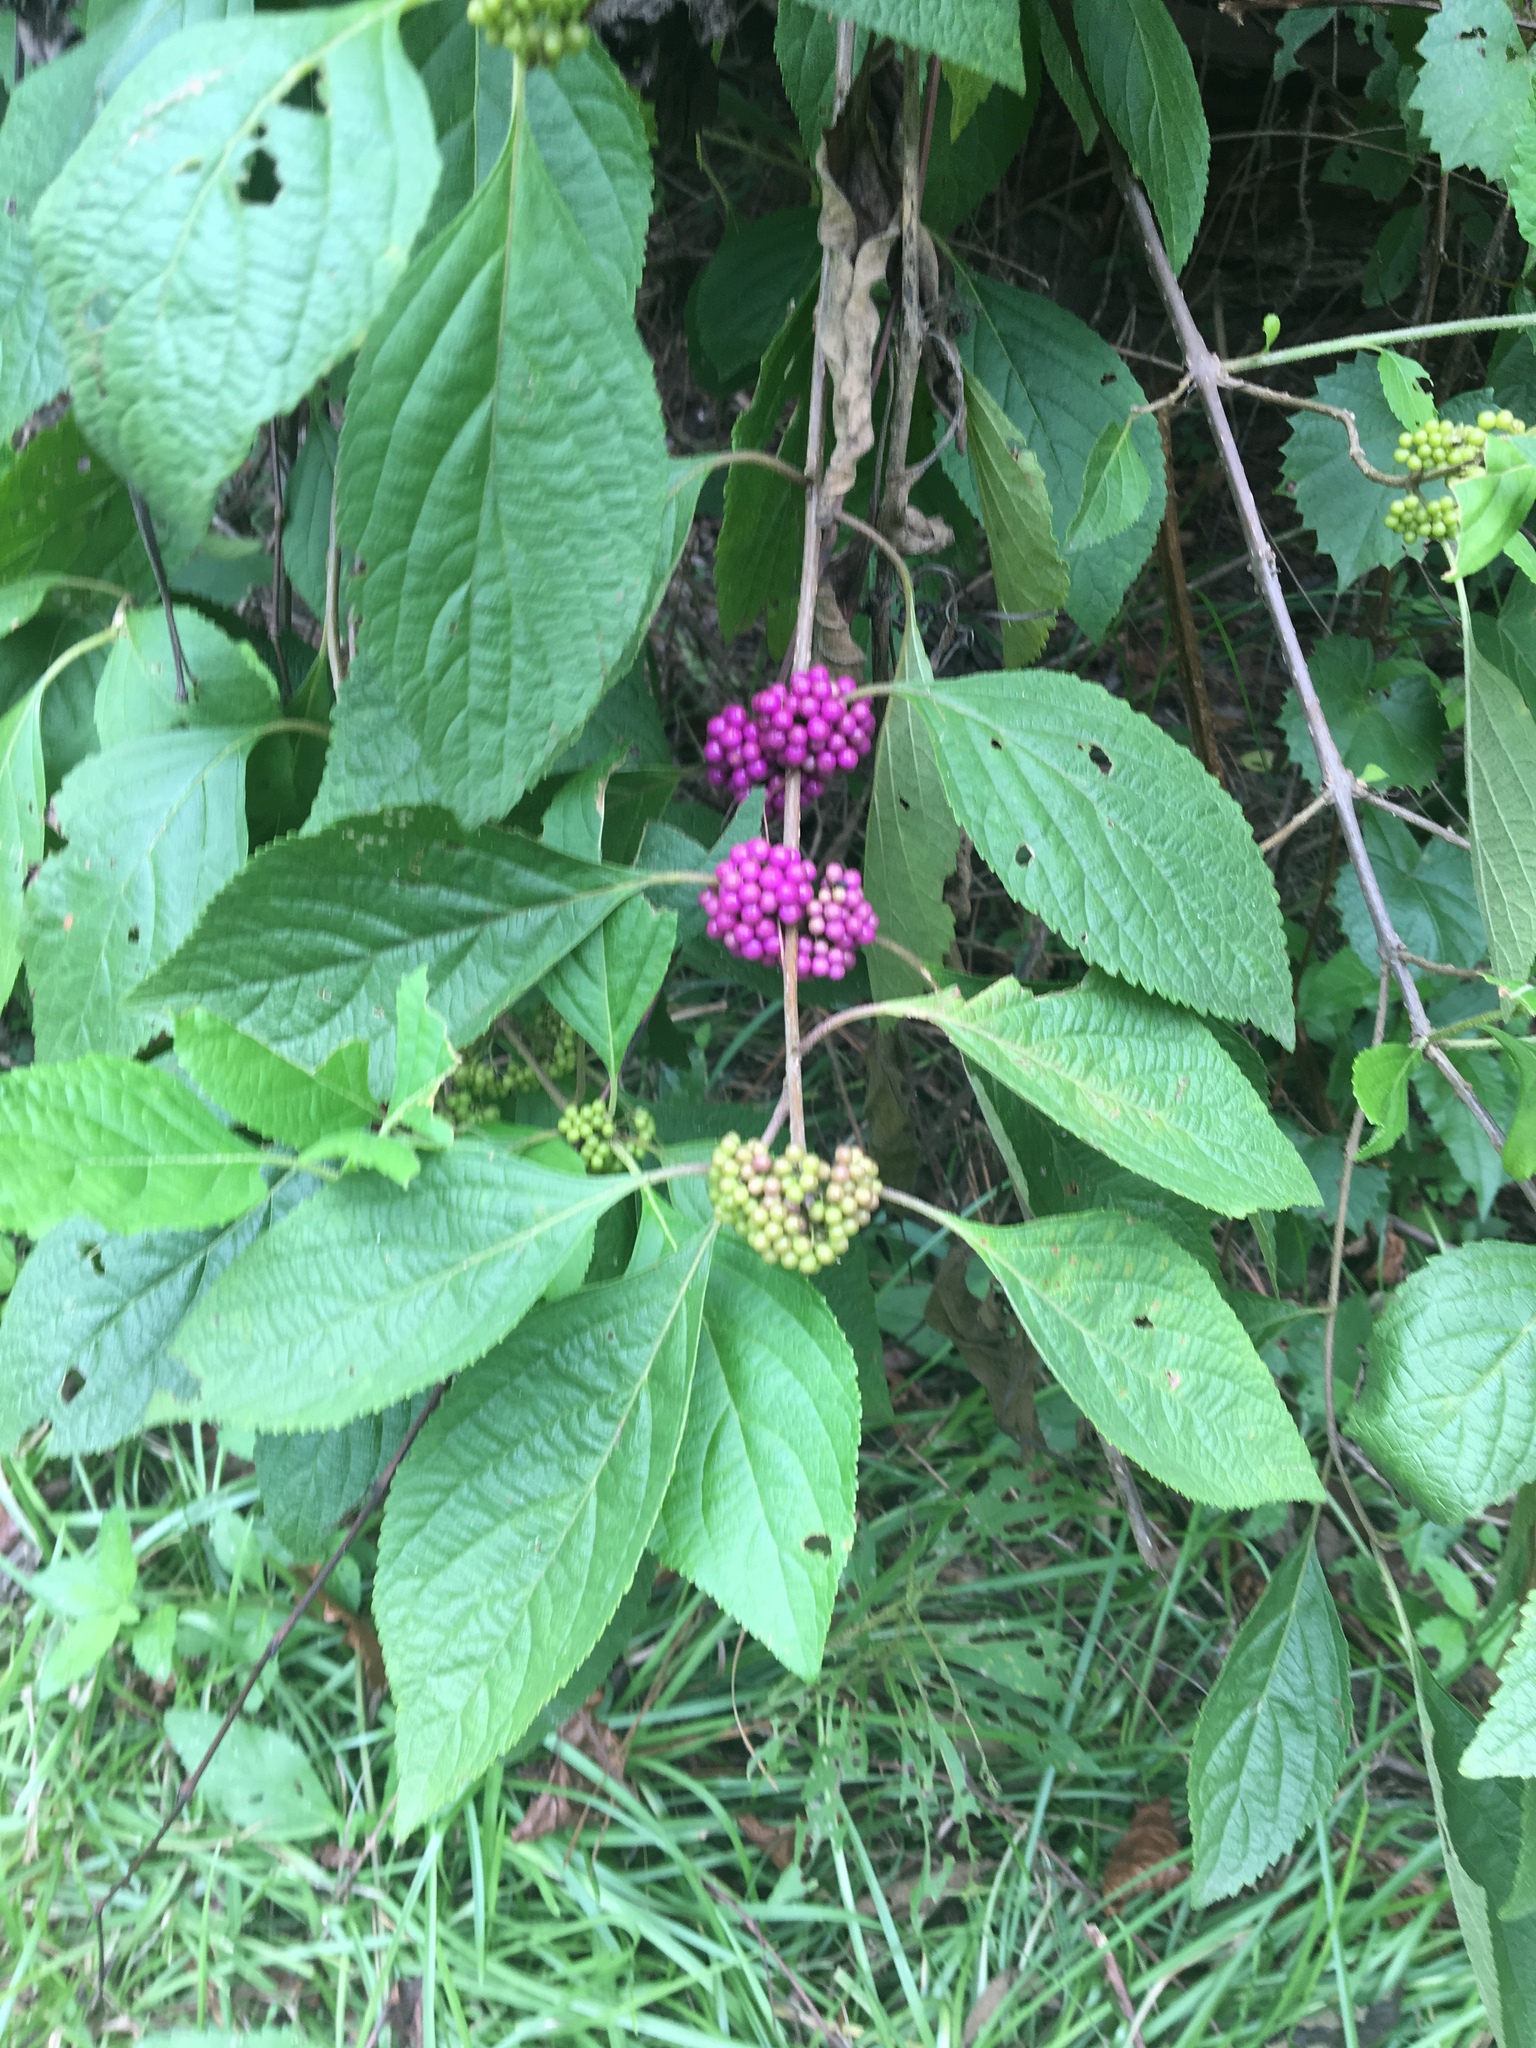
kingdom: Plantae
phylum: Tracheophyta
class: Magnoliopsida
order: Lamiales
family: Lamiaceae
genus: Callicarpa
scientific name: Callicarpa americana
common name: American beautyberry
